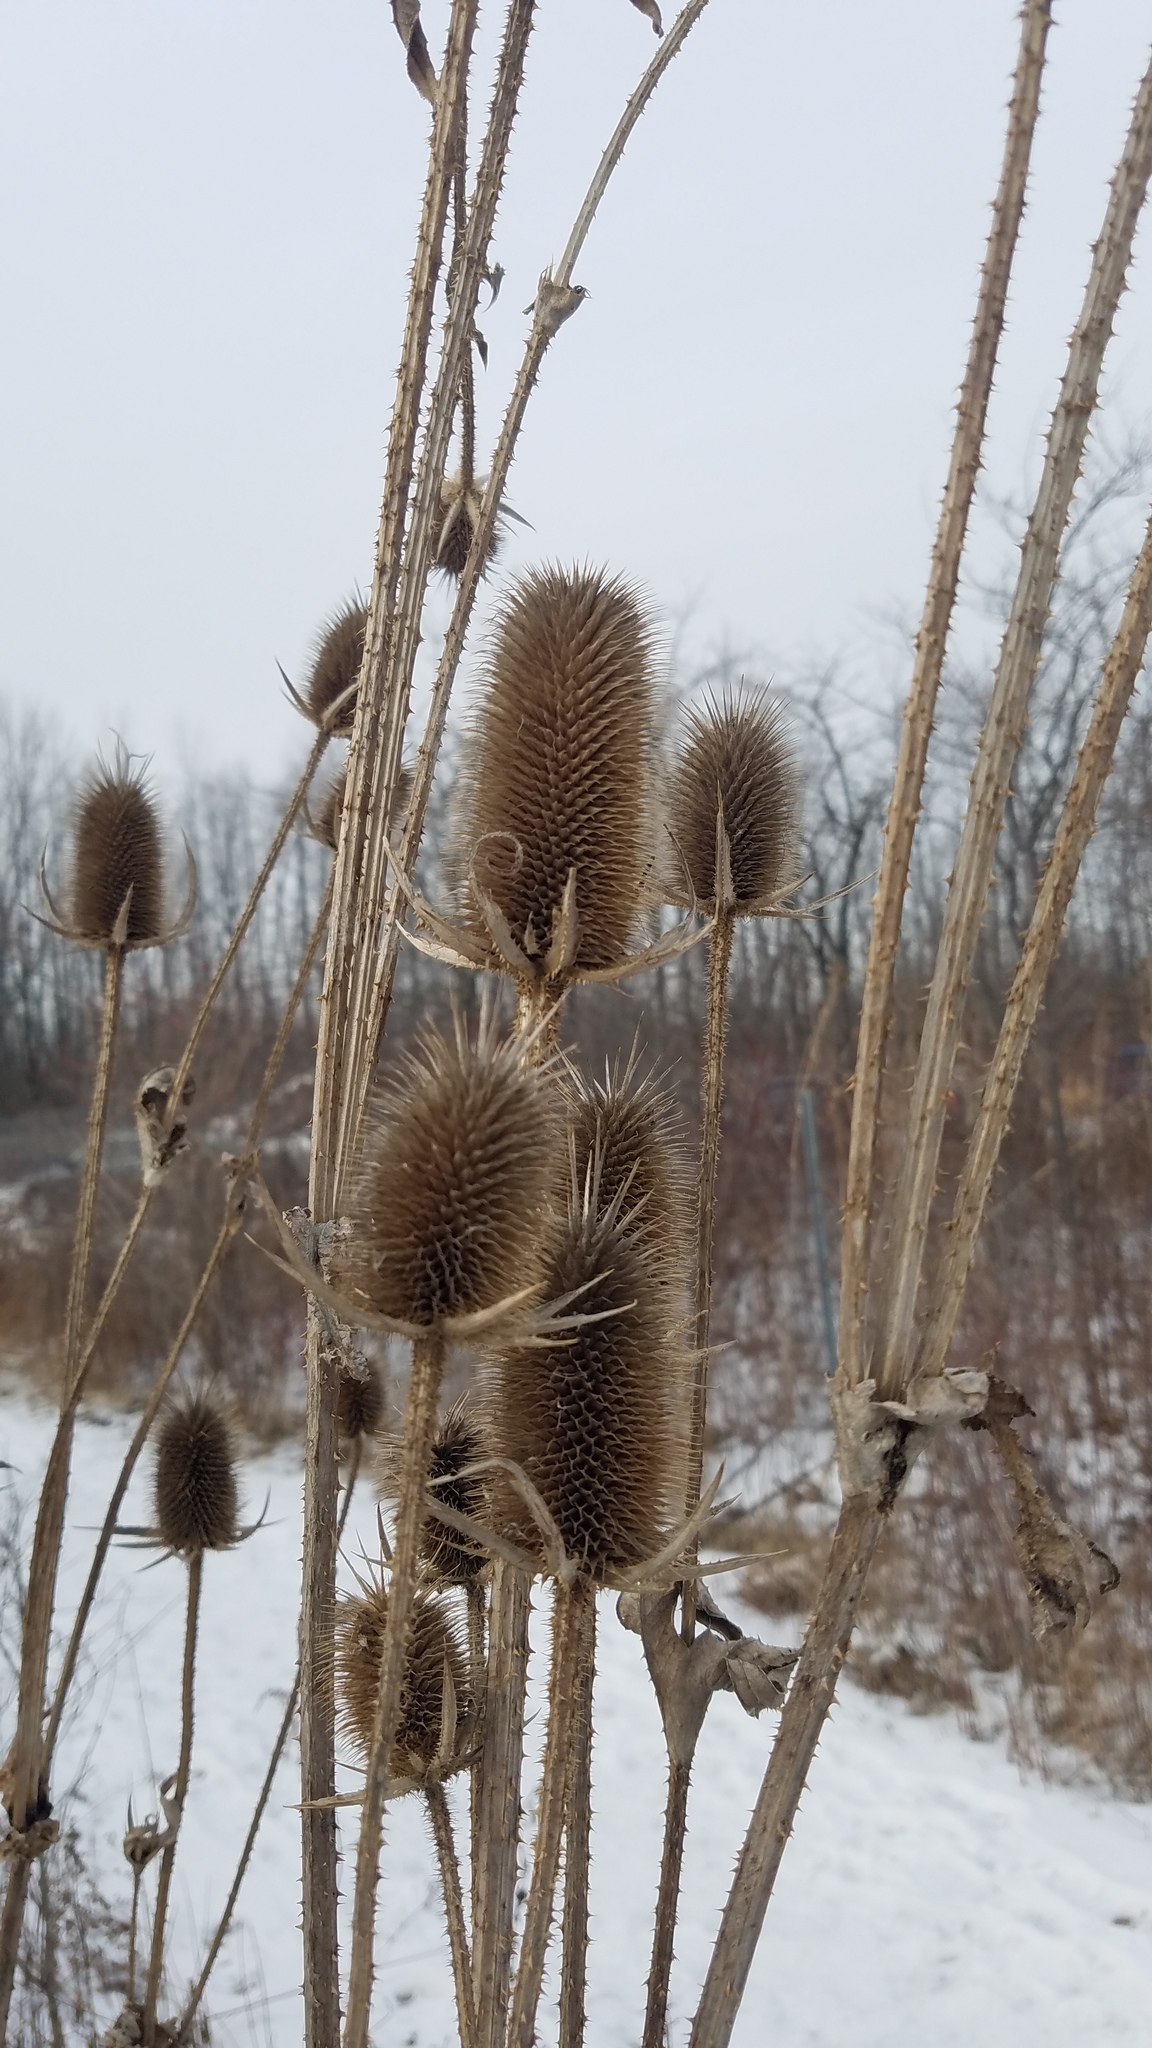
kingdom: Plantae
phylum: Tracheophyta
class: Magnoliopsida
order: Dipsacales
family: Caprifoliaceae
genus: Dipsacus
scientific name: Dipsacus laciniatus
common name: Cut-leaved teasel
